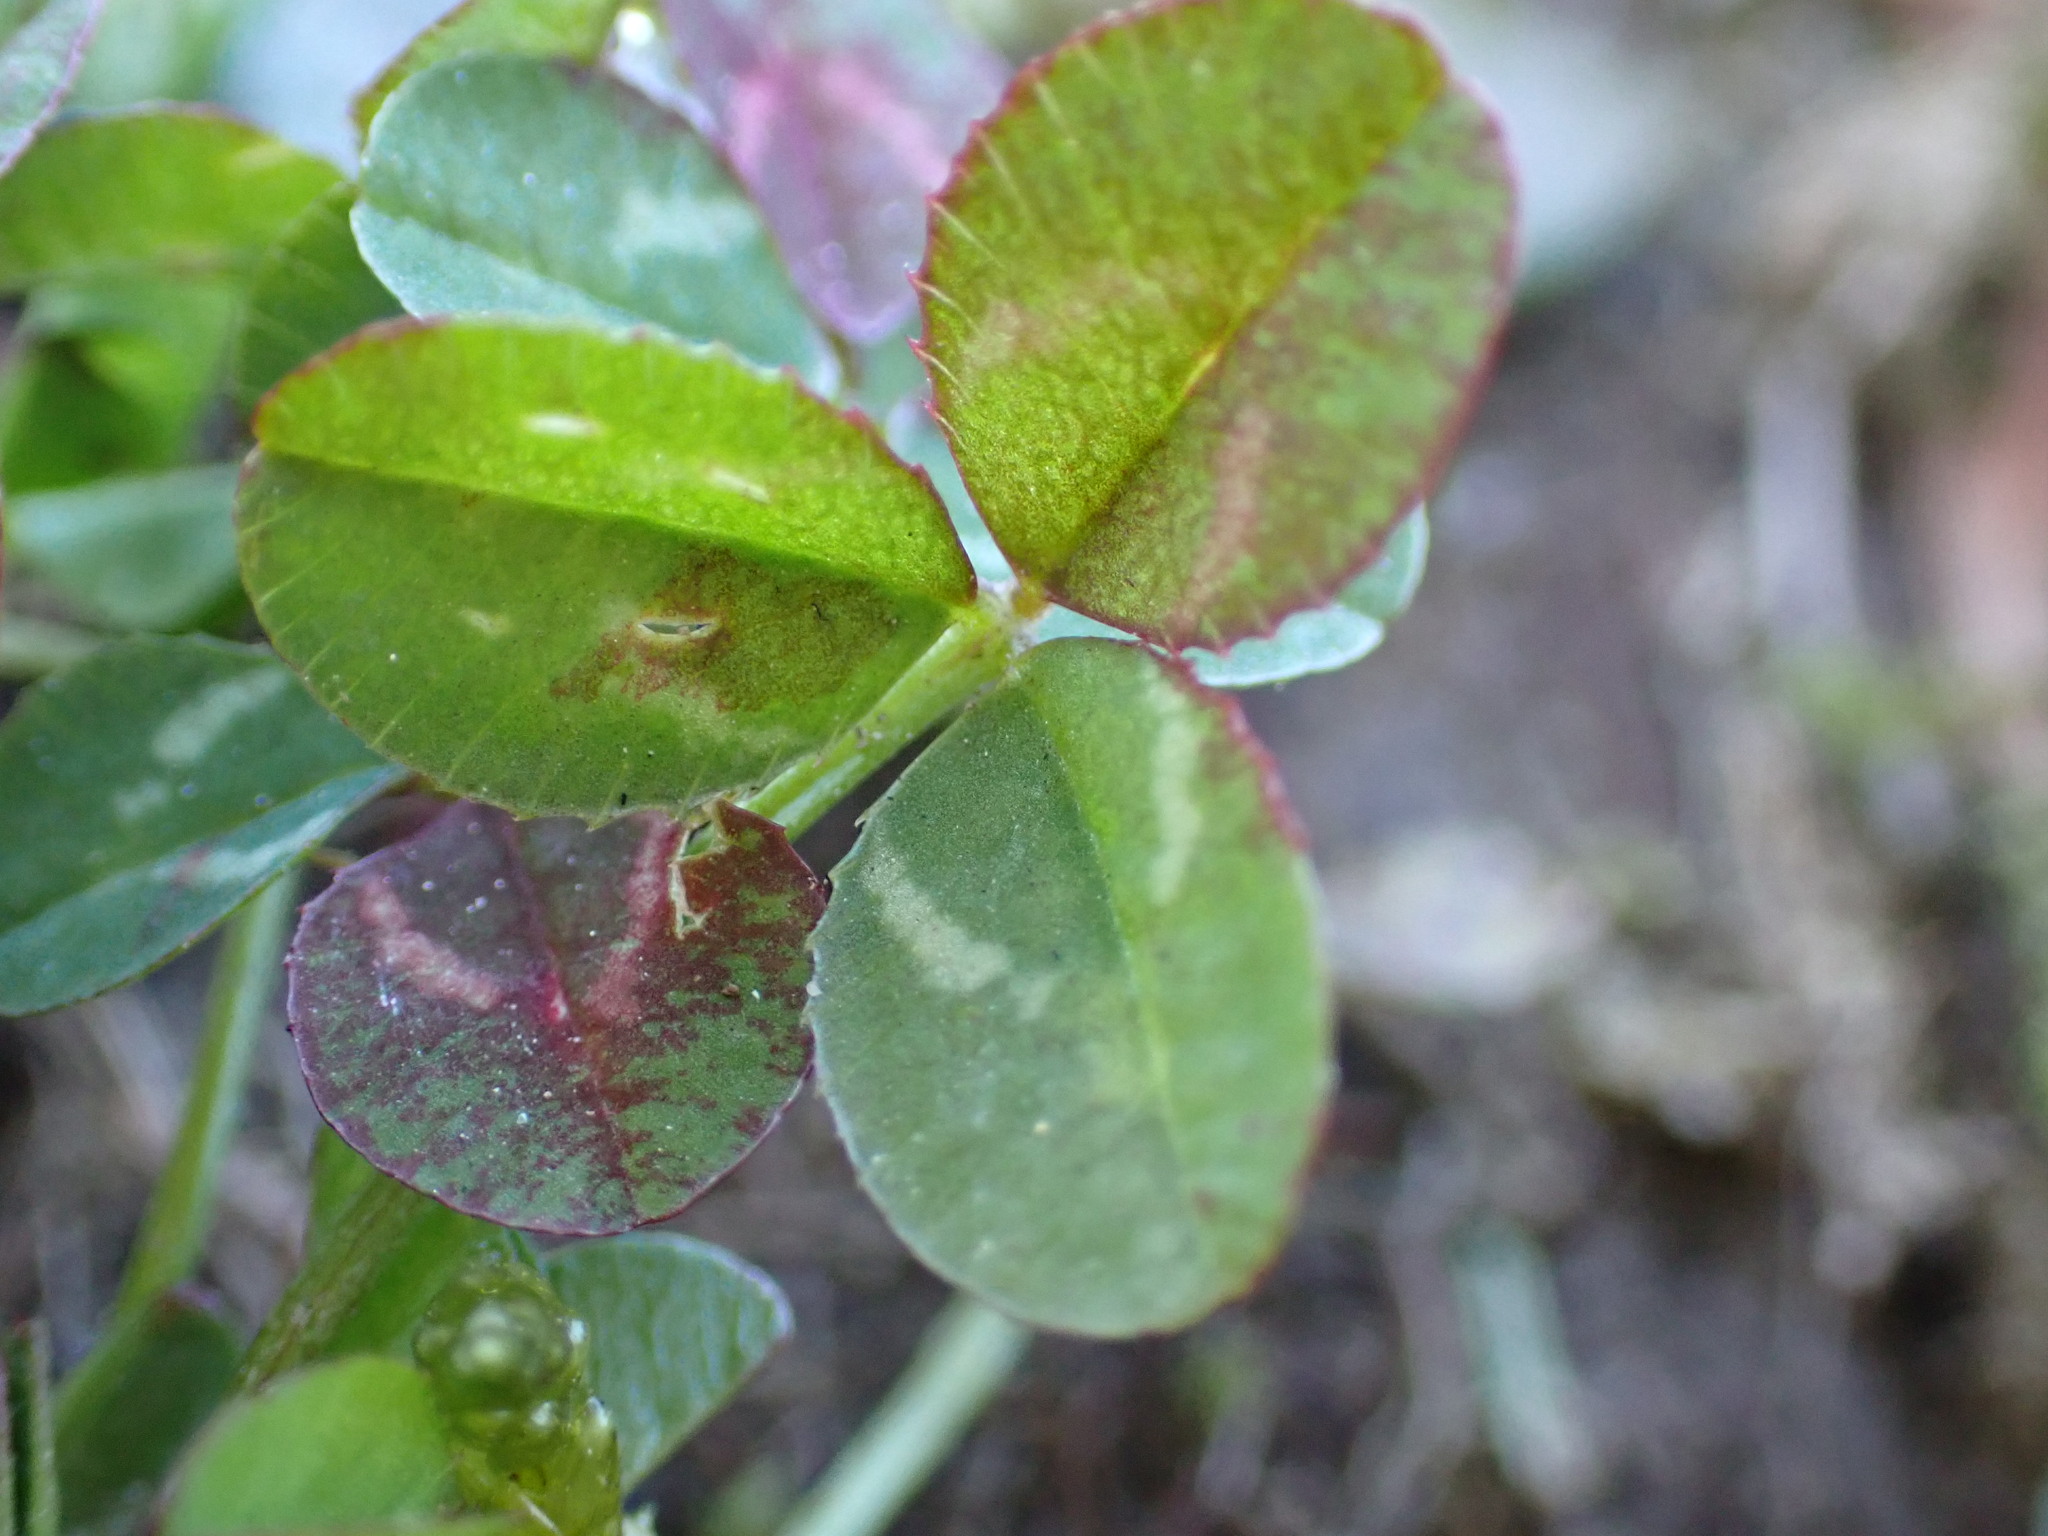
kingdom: Plantae
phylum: Tracheophyta
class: Magnoliopsida
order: Fabales
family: Fabaceae
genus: Trifolium
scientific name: Trifolium repens
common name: White clover
